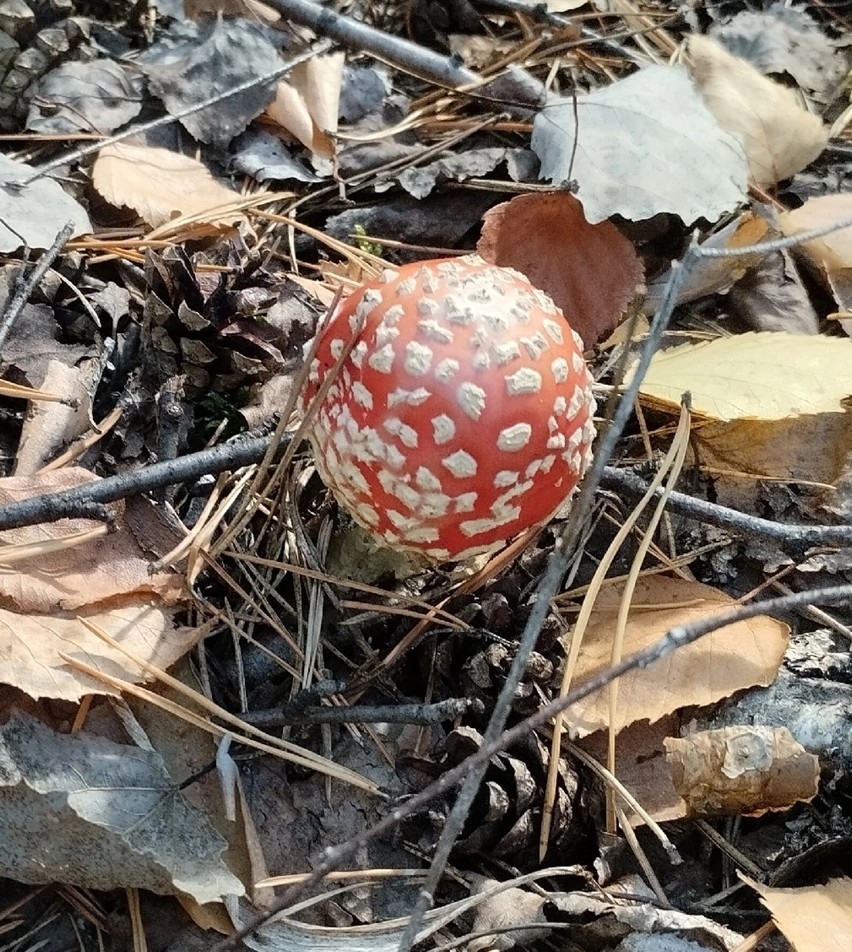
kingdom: Fungi
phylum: Basidiomycota
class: Agaricomycetes
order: Agaricales
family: Amanitaceae
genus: Amanita
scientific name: Amanita muscaria
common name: Fly agaric
